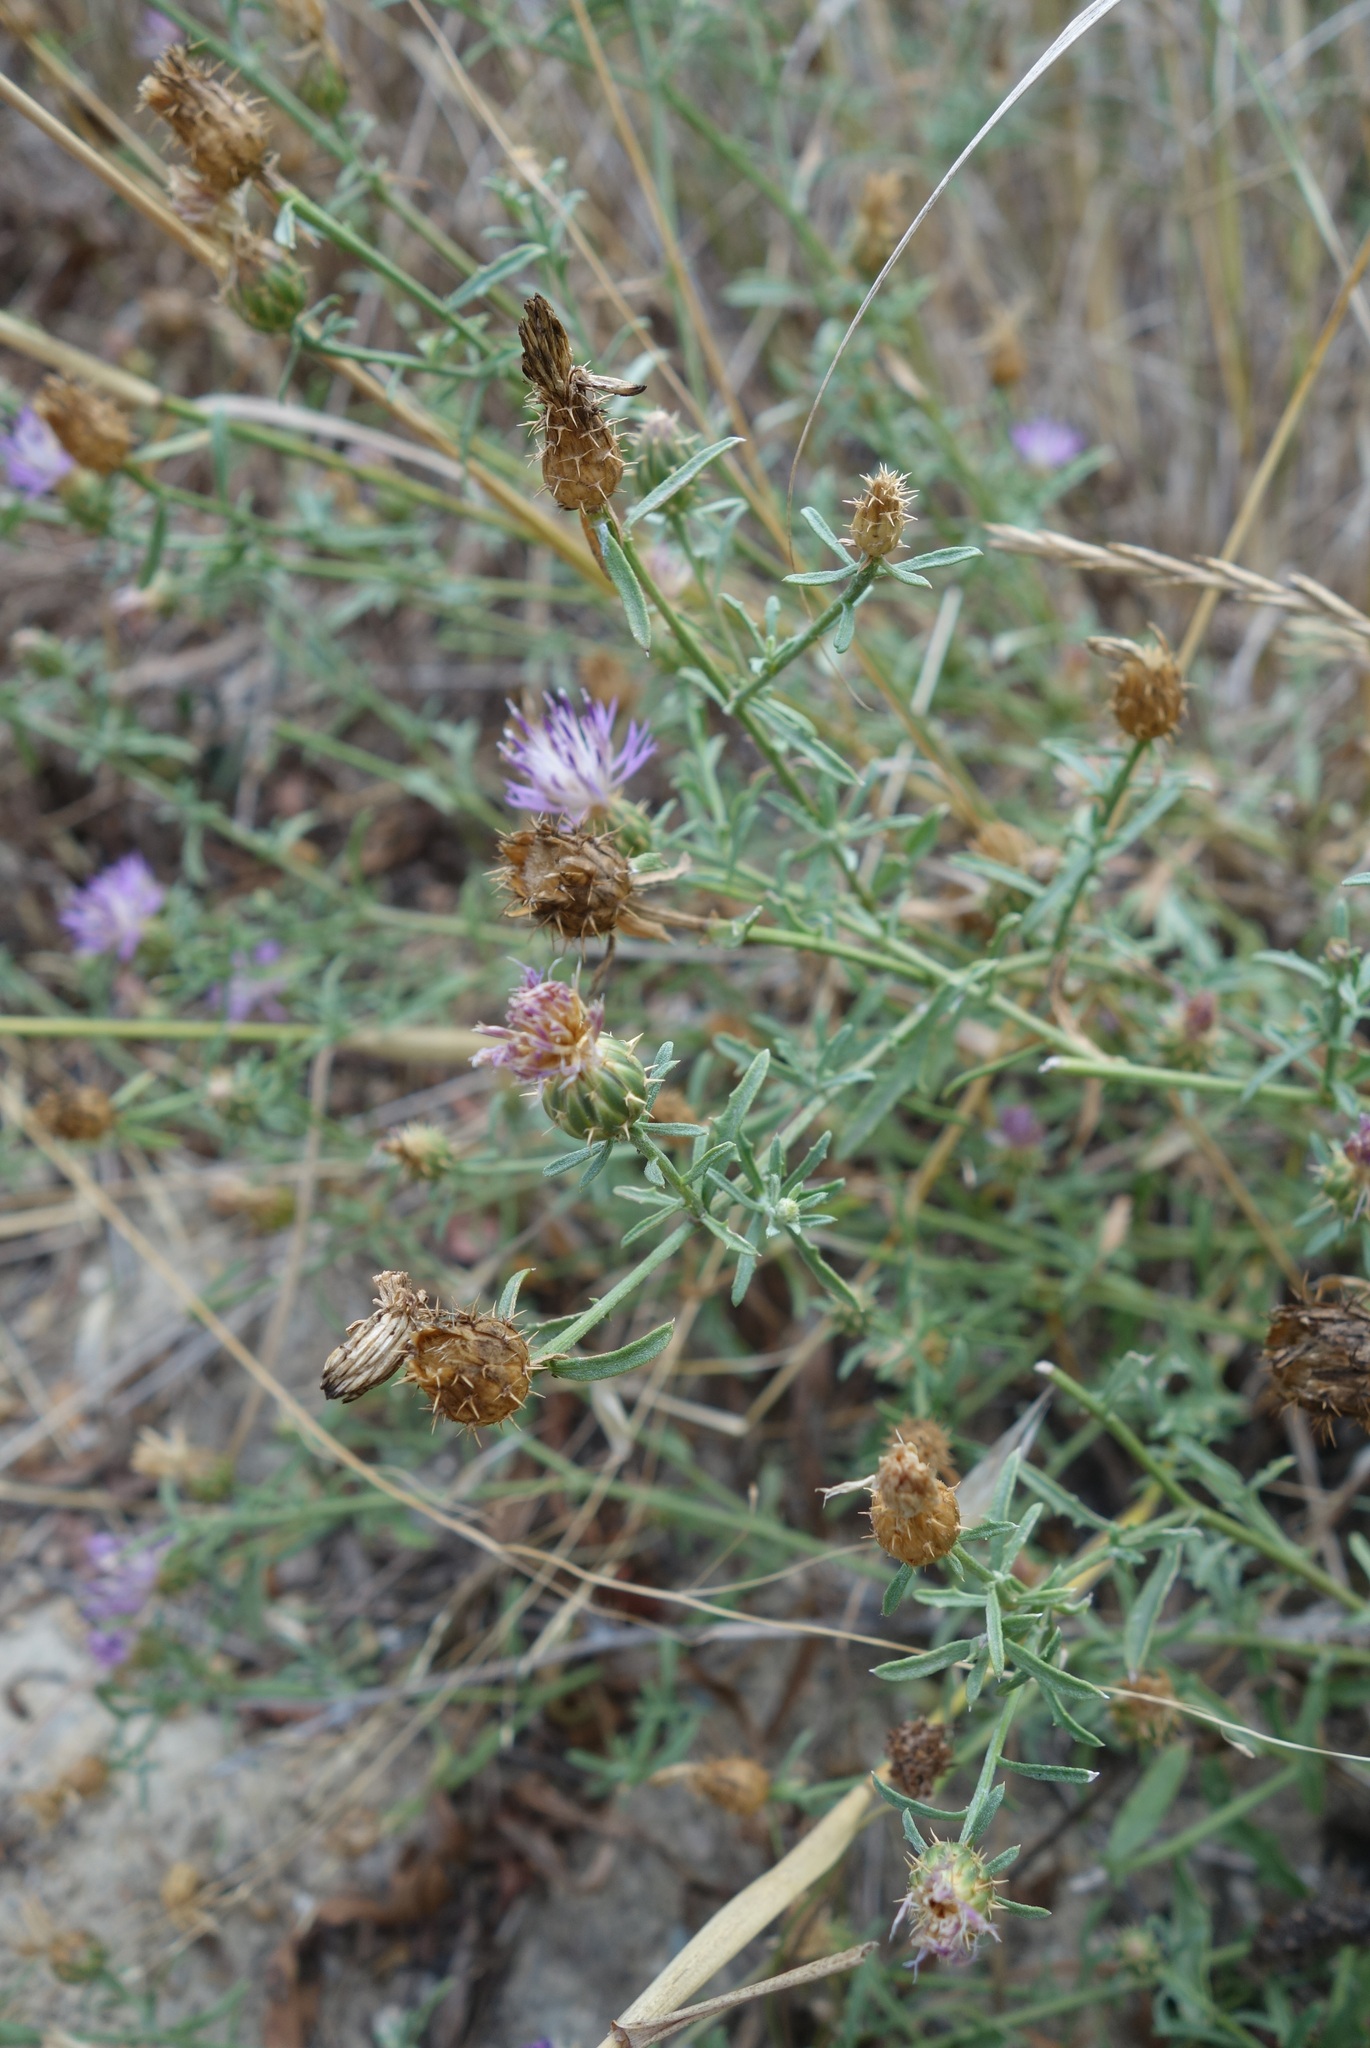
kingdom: Plantae
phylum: Tracheophyta
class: Magnoliopsida
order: Asterales
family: Asteraceae
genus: Centaurea
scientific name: Centaurea aspera
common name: Rough star-thistle
